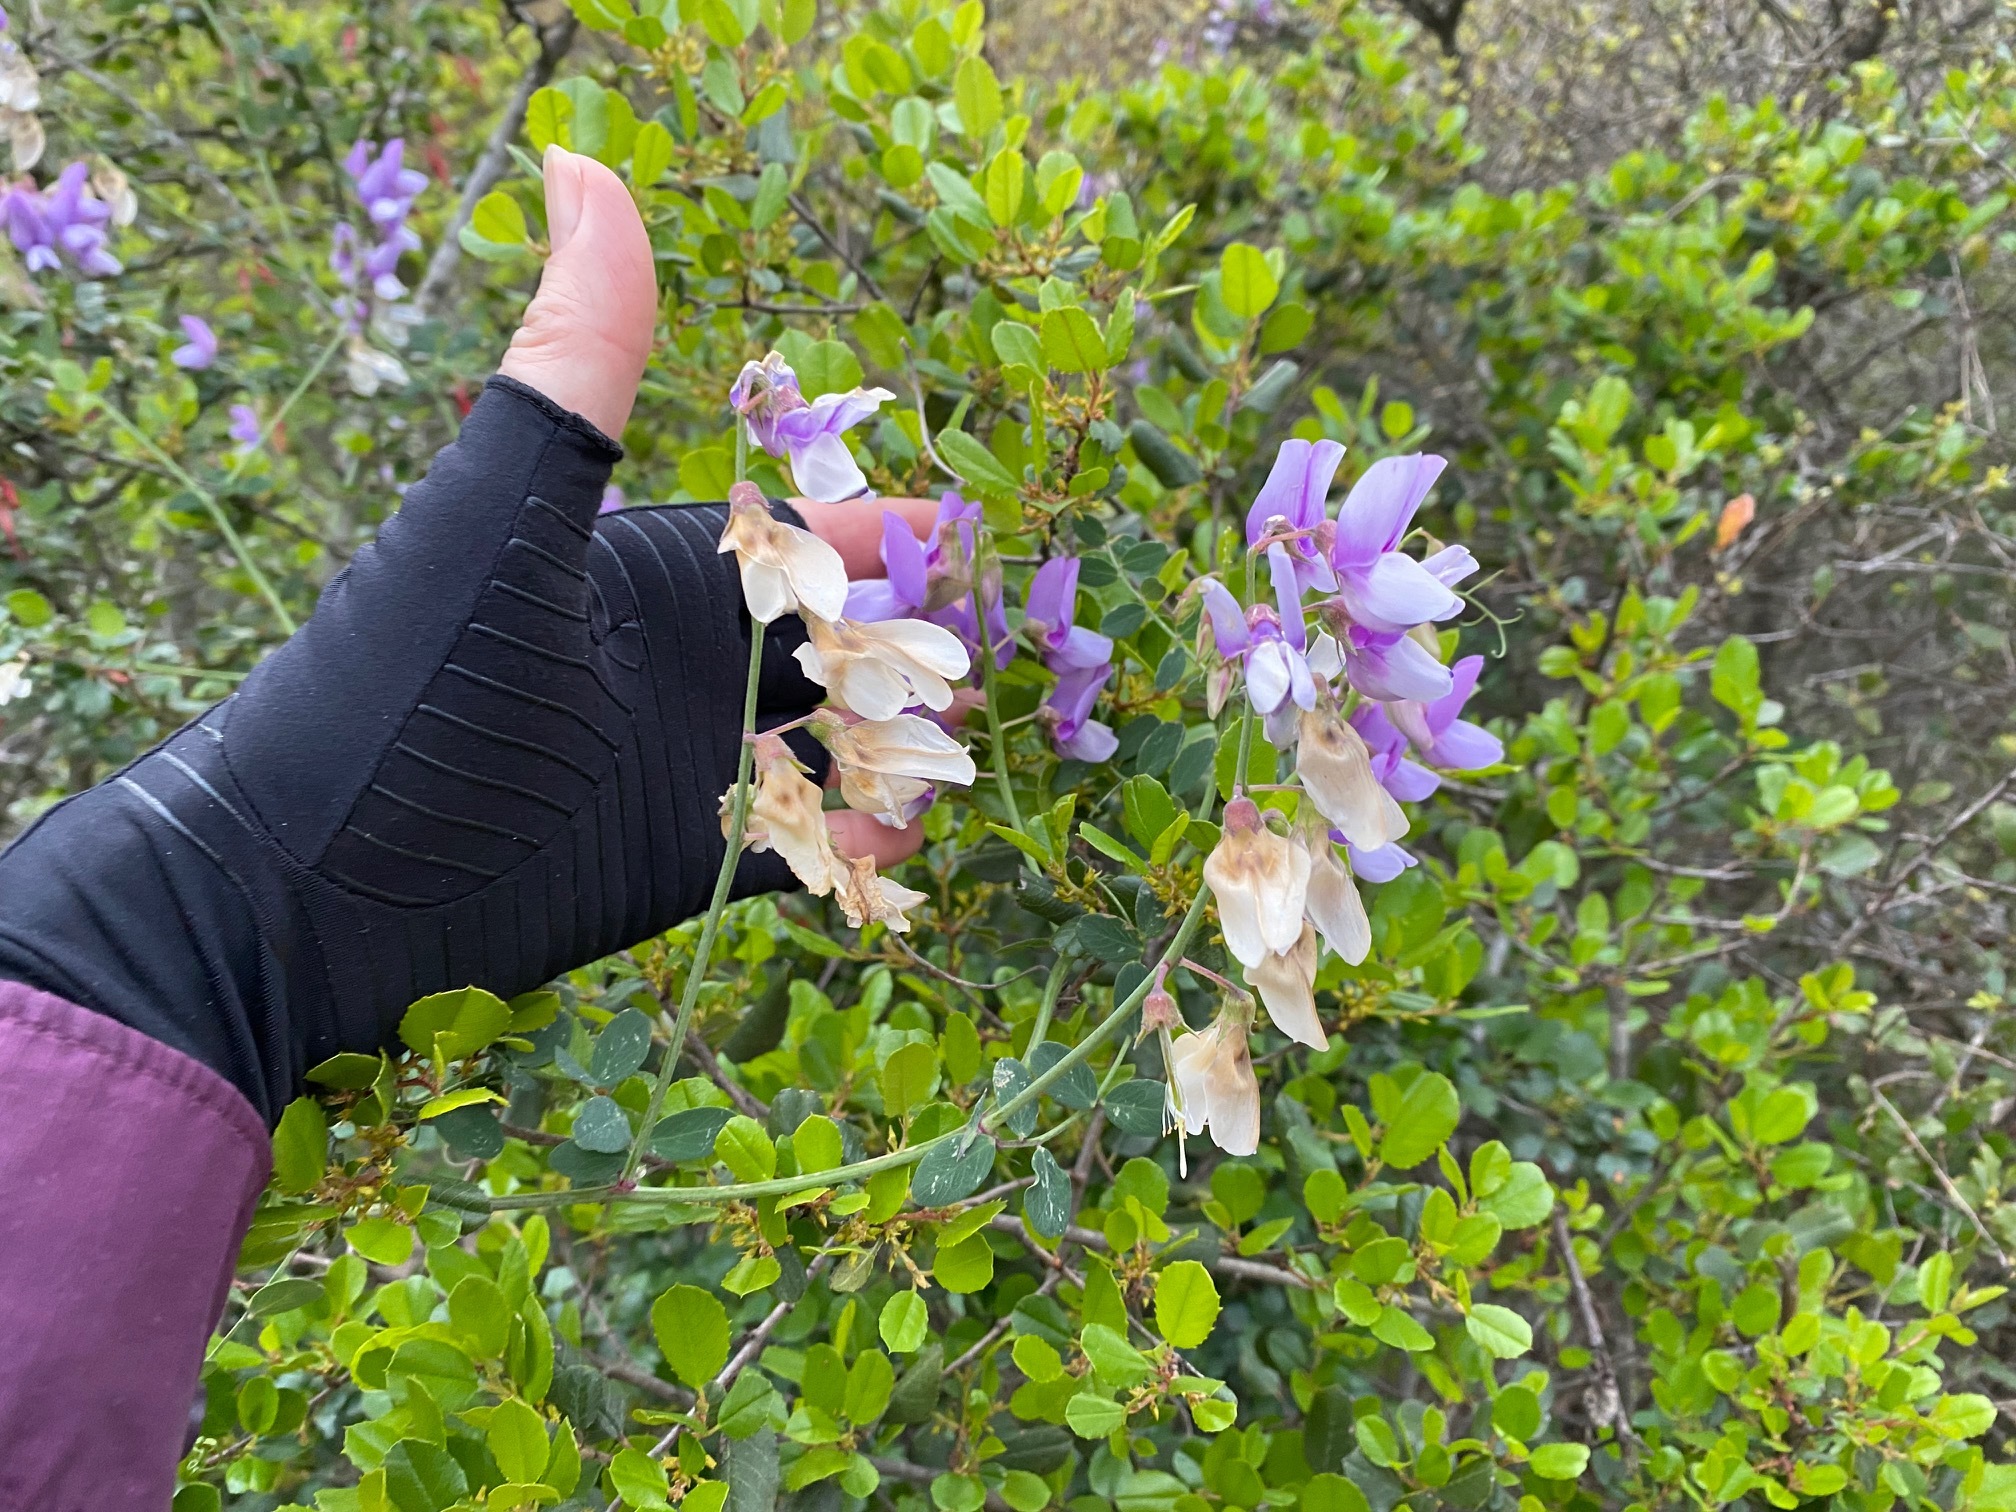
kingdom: Plantae
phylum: Tracheophyta
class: Magnoliopsida
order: Fabales
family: Fabaceae
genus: Lathyrus
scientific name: Lathyrus vestitus
